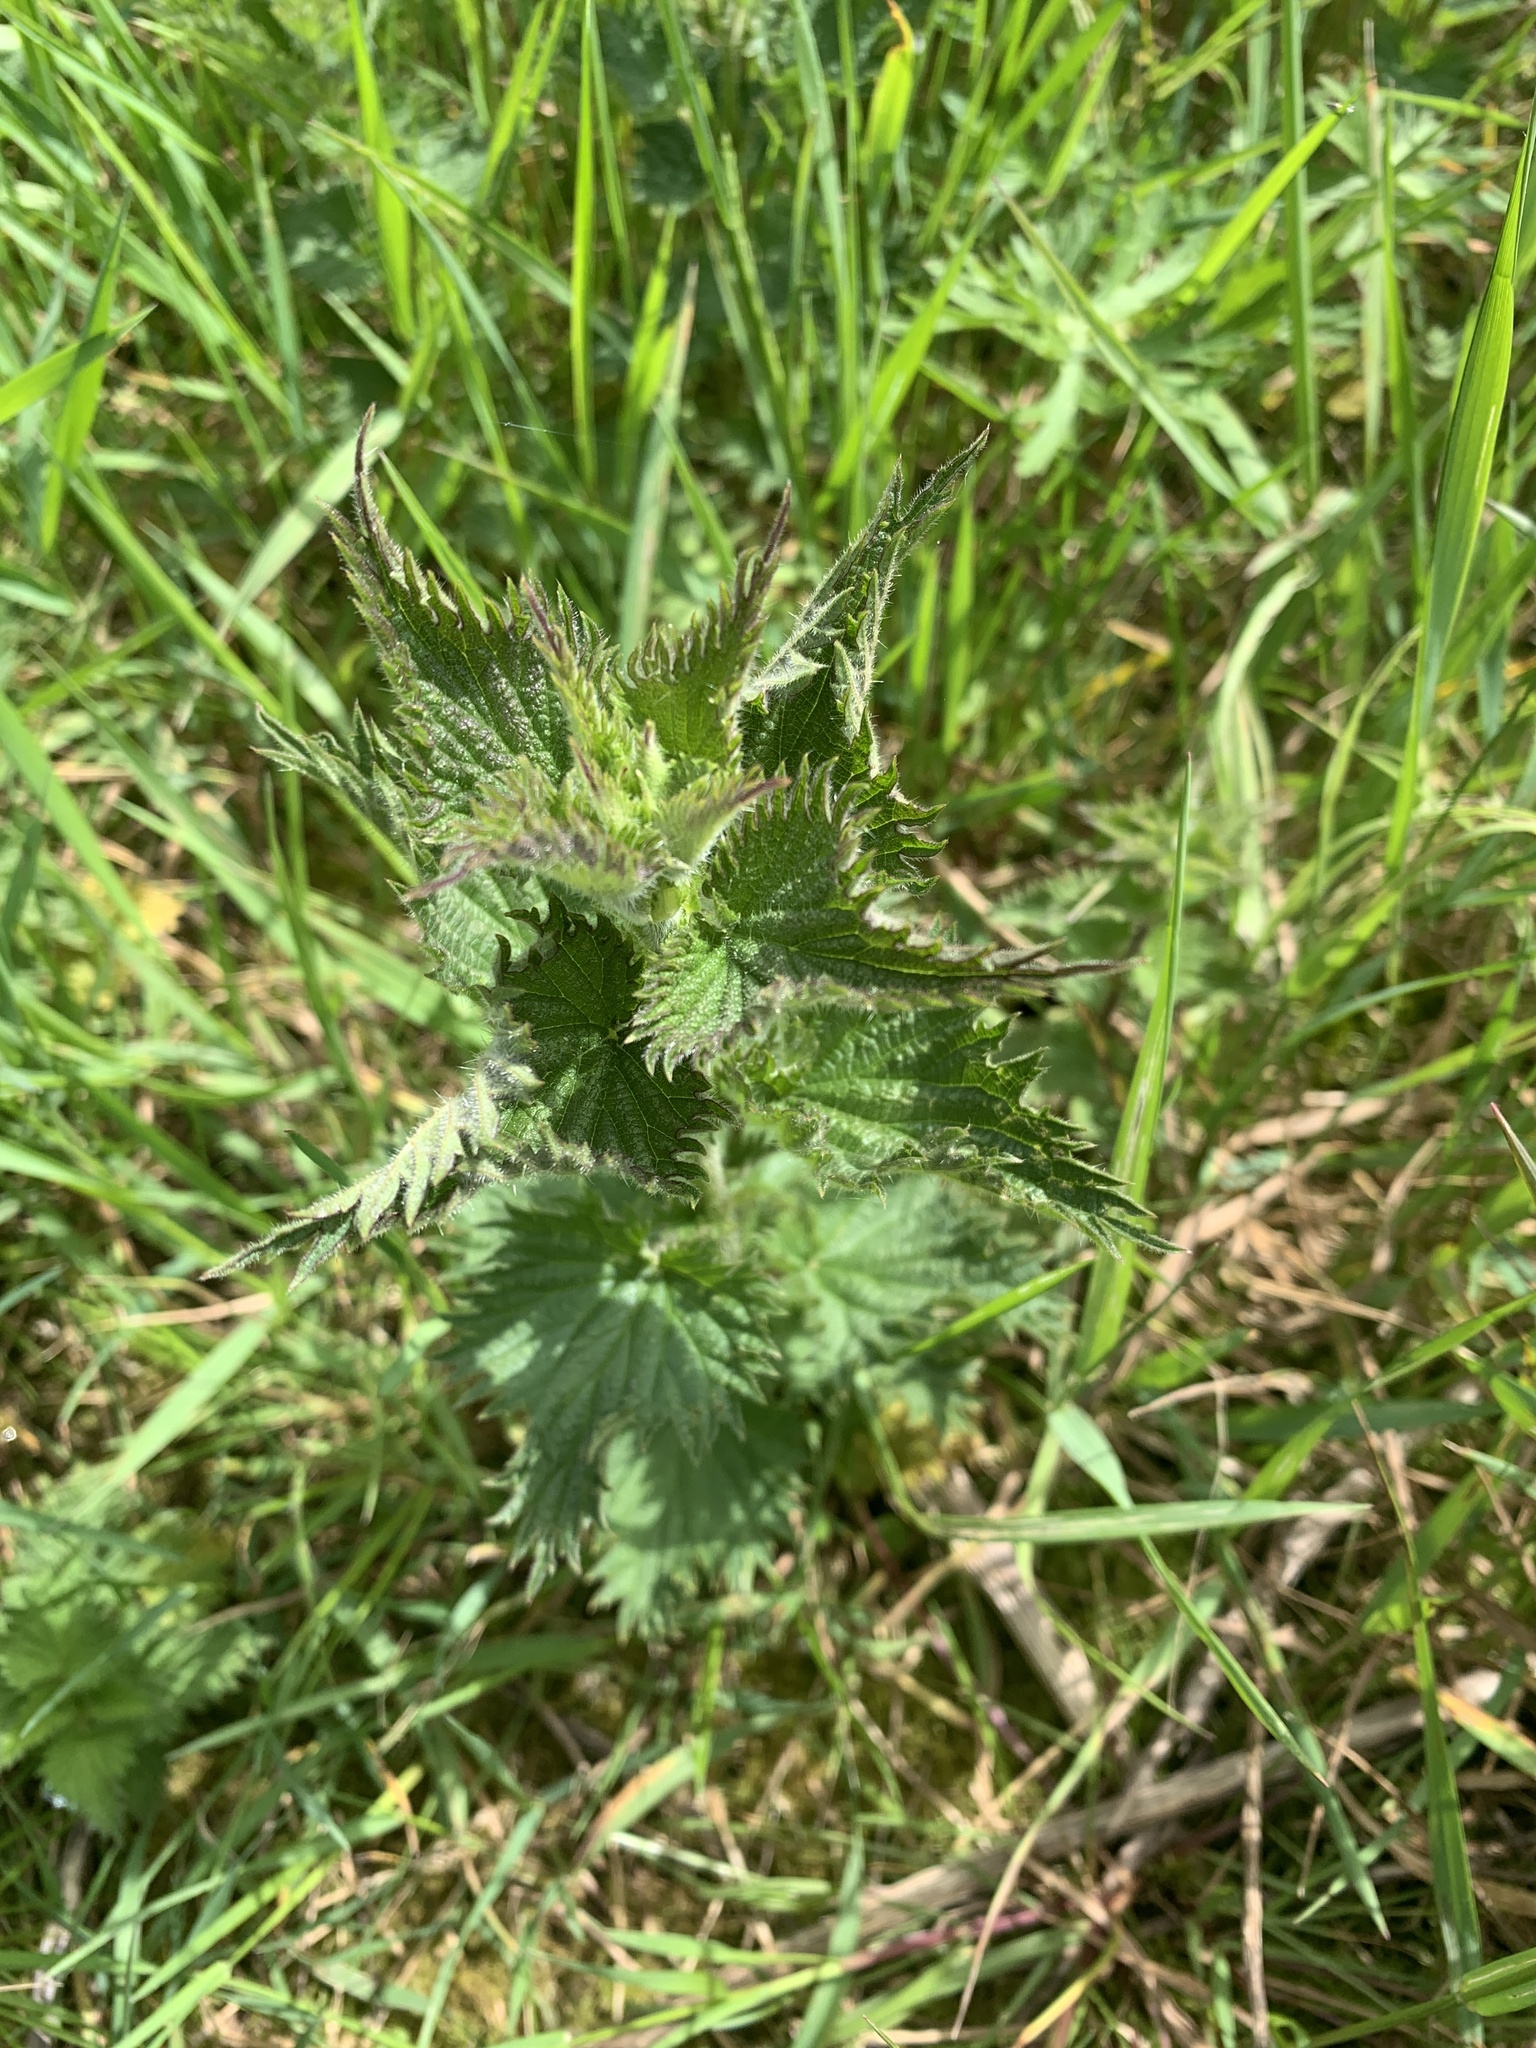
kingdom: Plantae
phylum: Tracheophyta
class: Magnoliopsida
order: Rosales
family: Urticaceae
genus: Urtica
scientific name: Urtica dioica
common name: Common nettle
